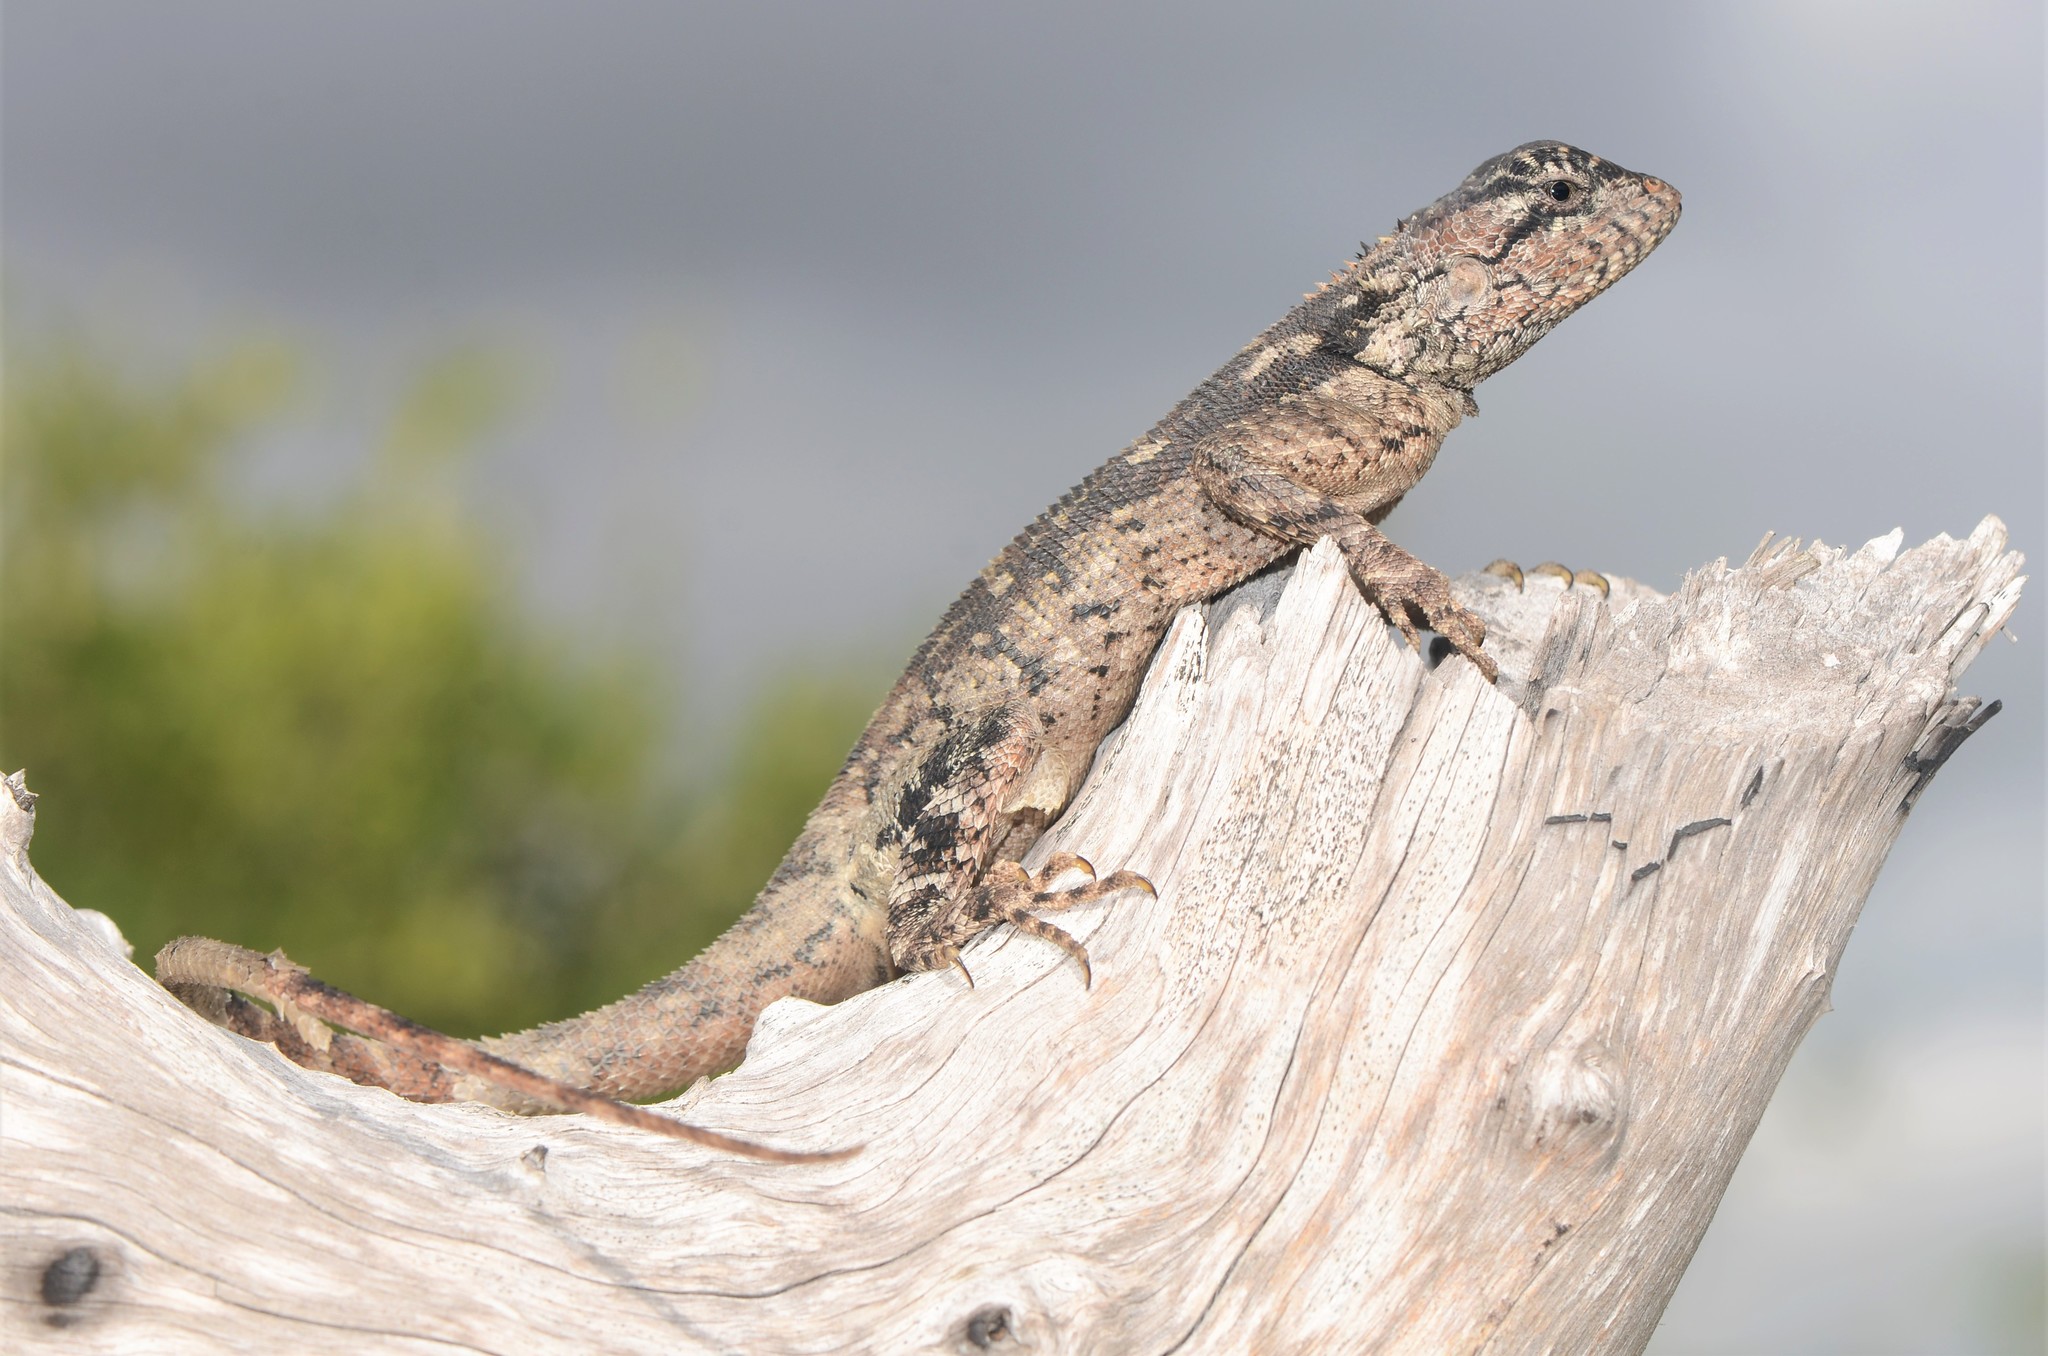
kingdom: Animalia
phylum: Chordata
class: Squamata
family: Agamidae
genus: Agama
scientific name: Agama mossambica
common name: Mozambique agama
